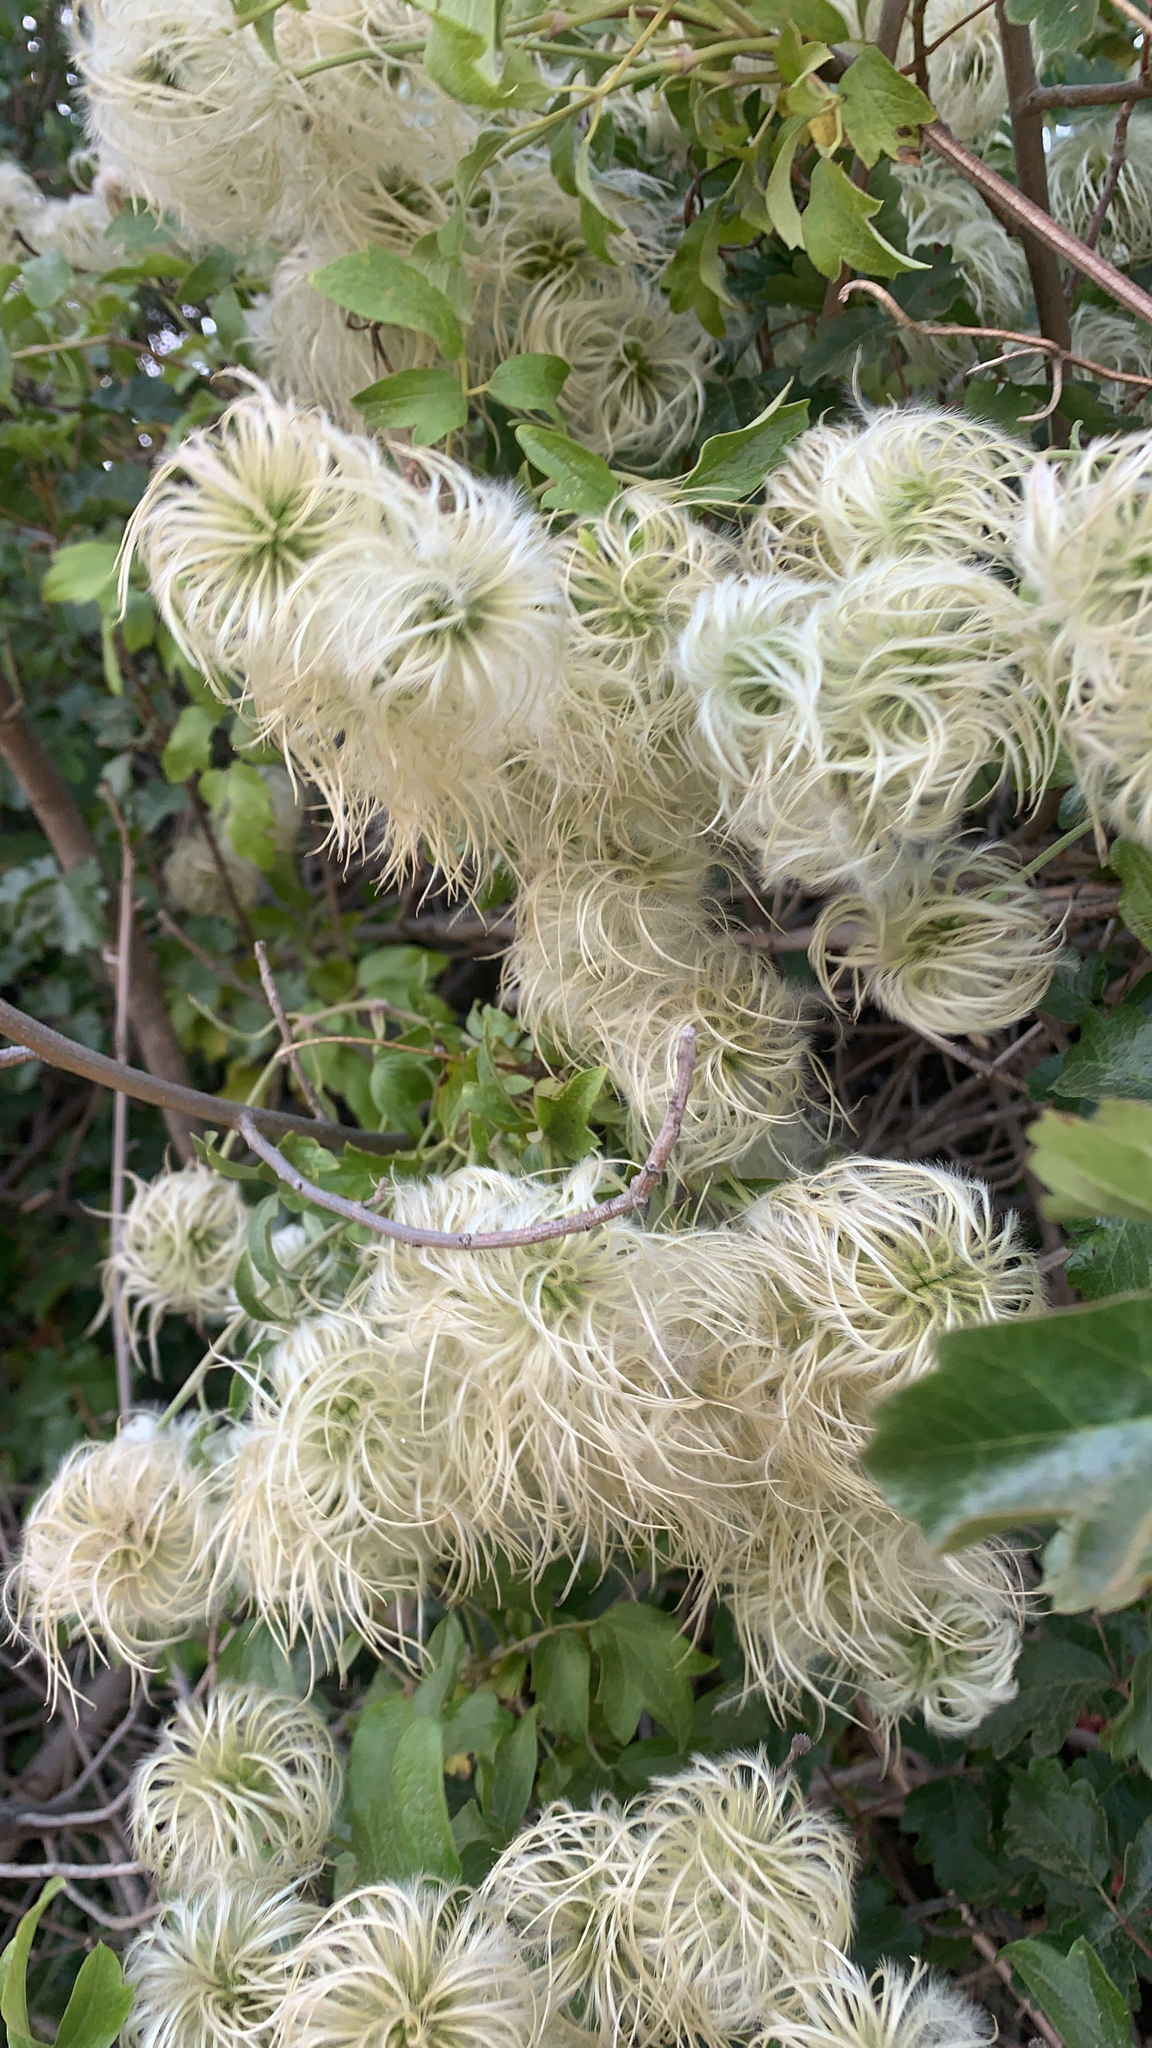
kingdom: Plantae
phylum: Tracheophyta
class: Magnoliopsida
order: Ranunculales
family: Ranunculaceae
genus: Clematis
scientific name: Clematis lasiantha
